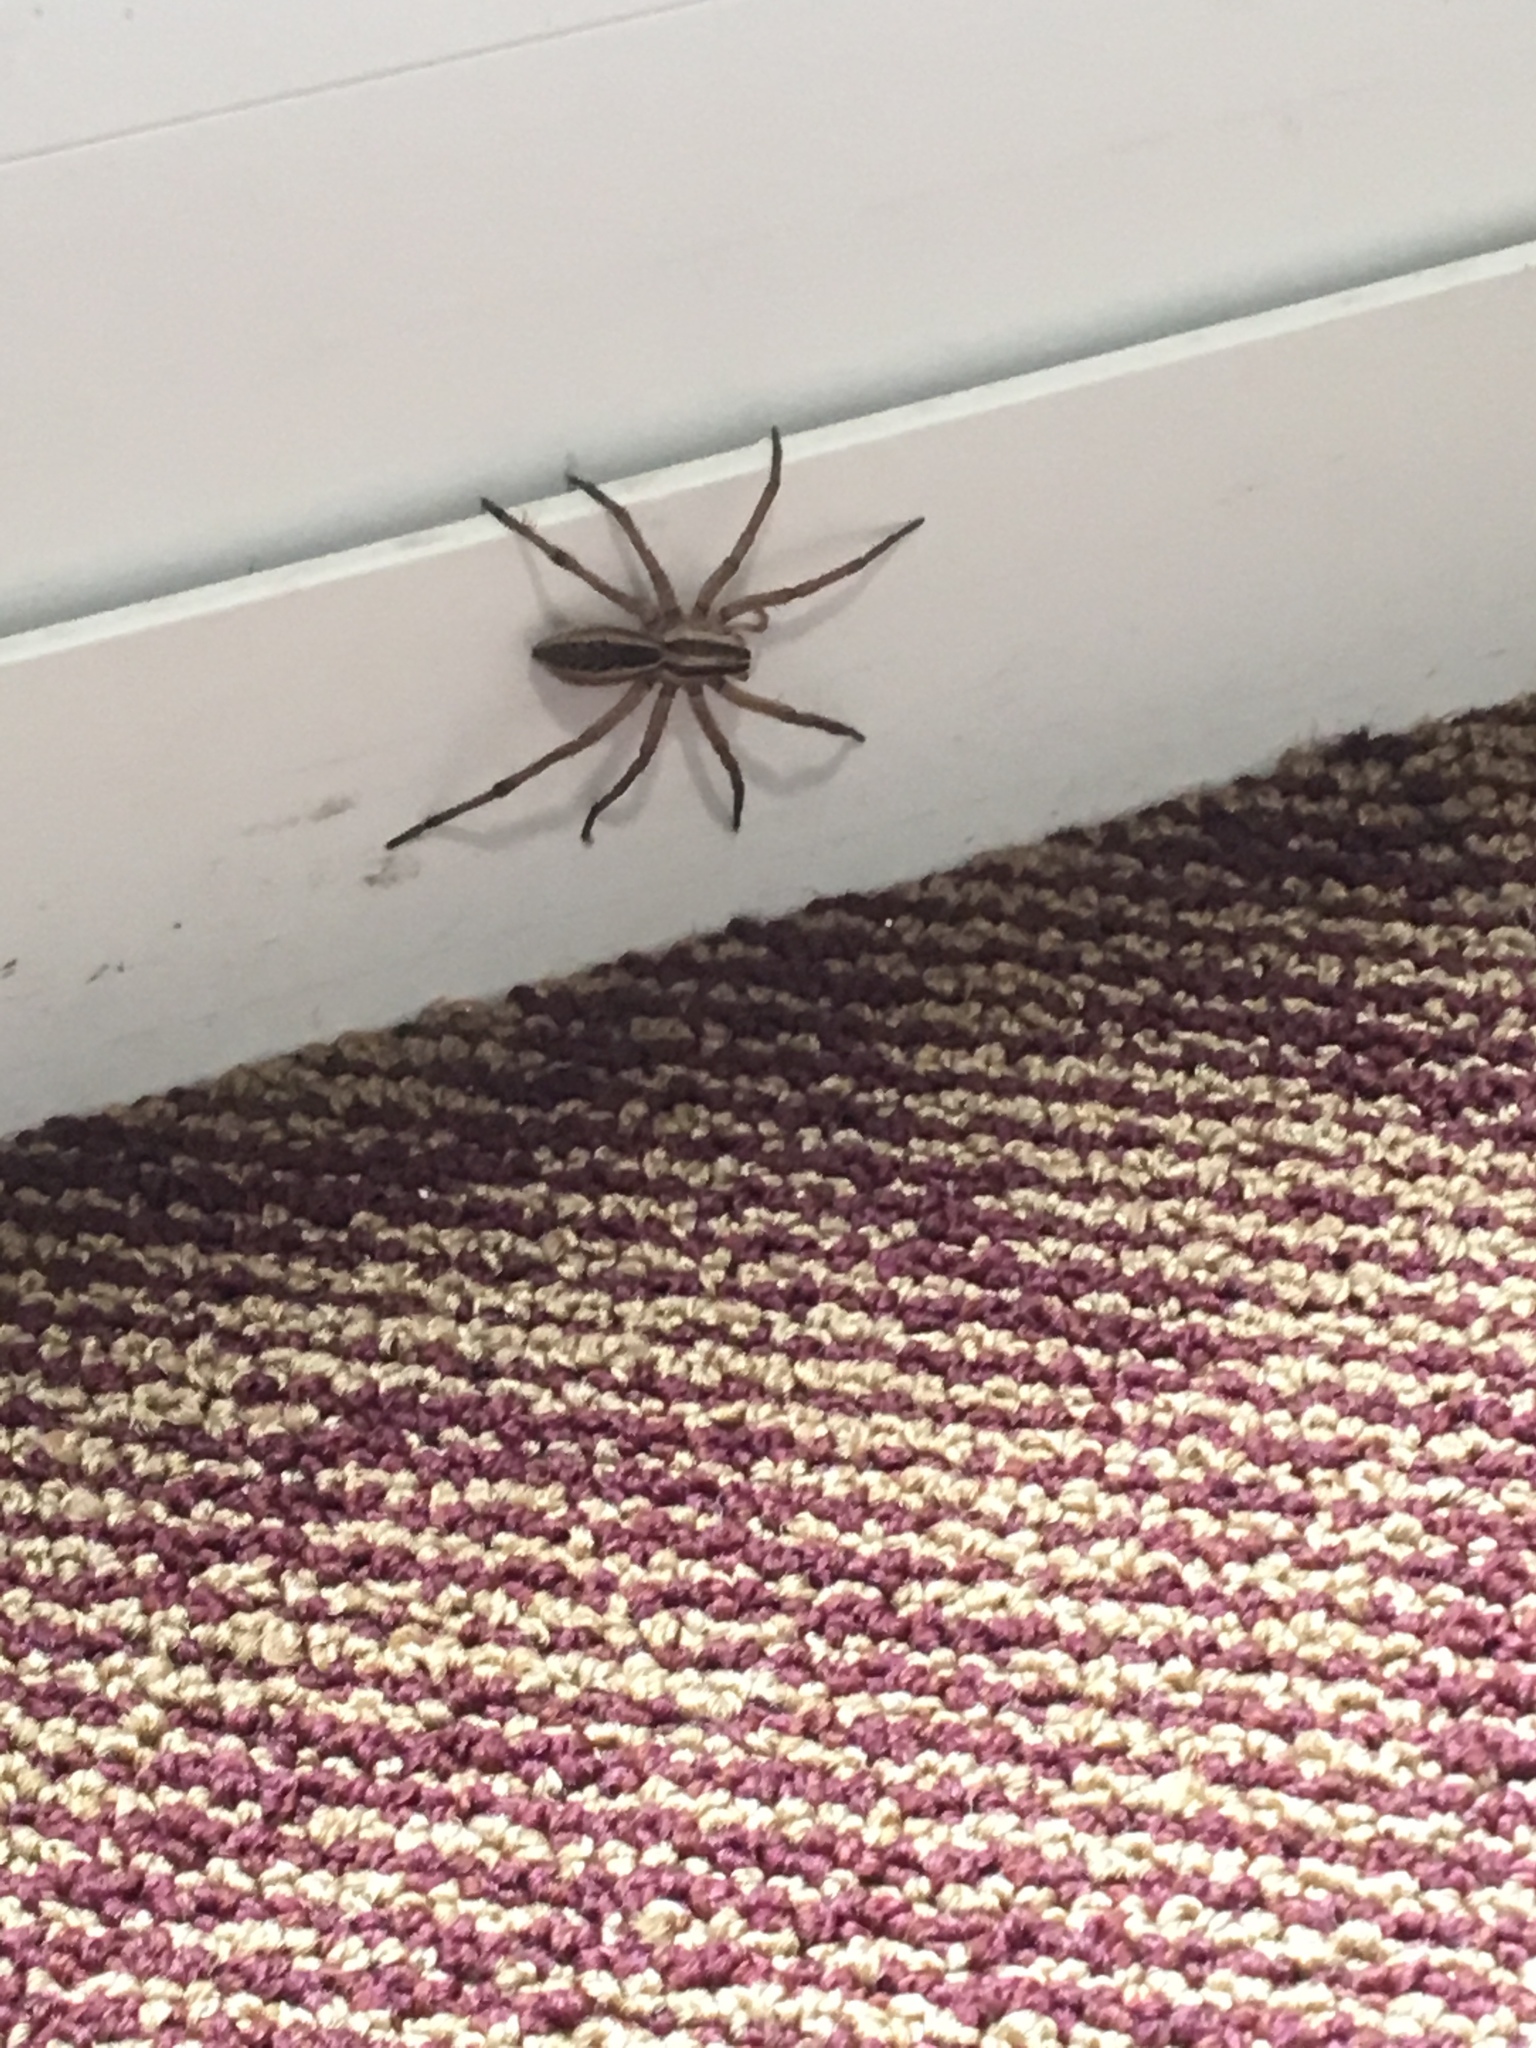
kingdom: Animalia
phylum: Arthropoda
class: Arachnida
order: Araneae
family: Lycosidae
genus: Rabidosa
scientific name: Rabidosa rabida
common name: Rabid wolf spider
